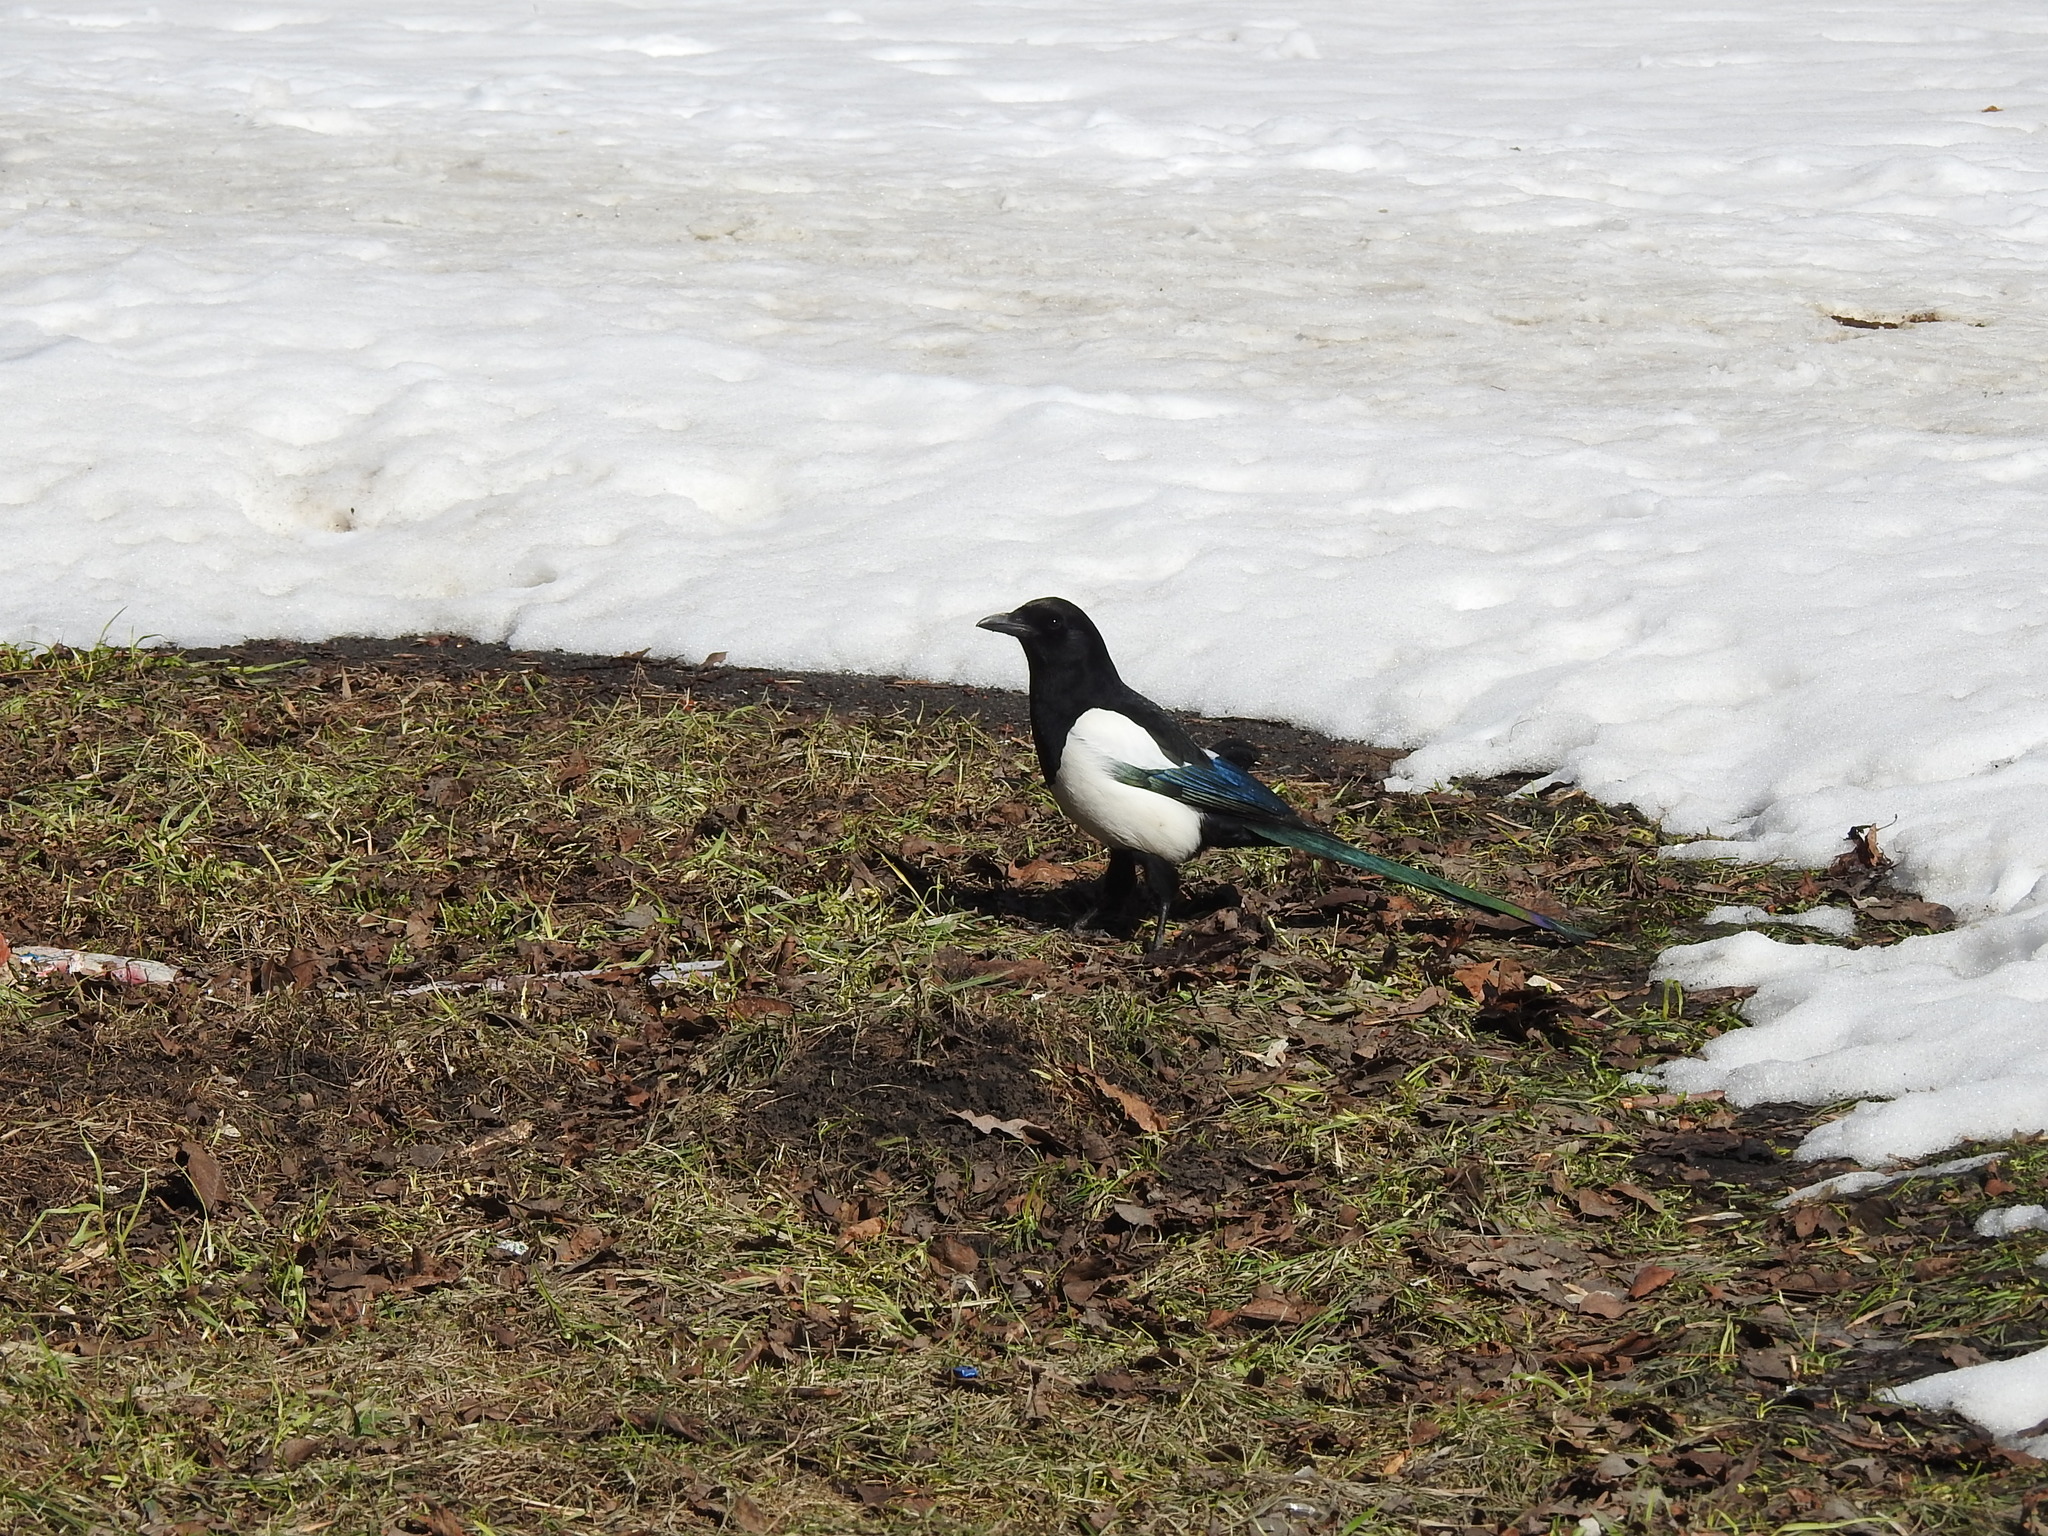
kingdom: Animalia
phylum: Chordata
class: Aves
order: Passeriformes
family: Corvidae
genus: Pica
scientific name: Pica pica
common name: Eurasian magpie
